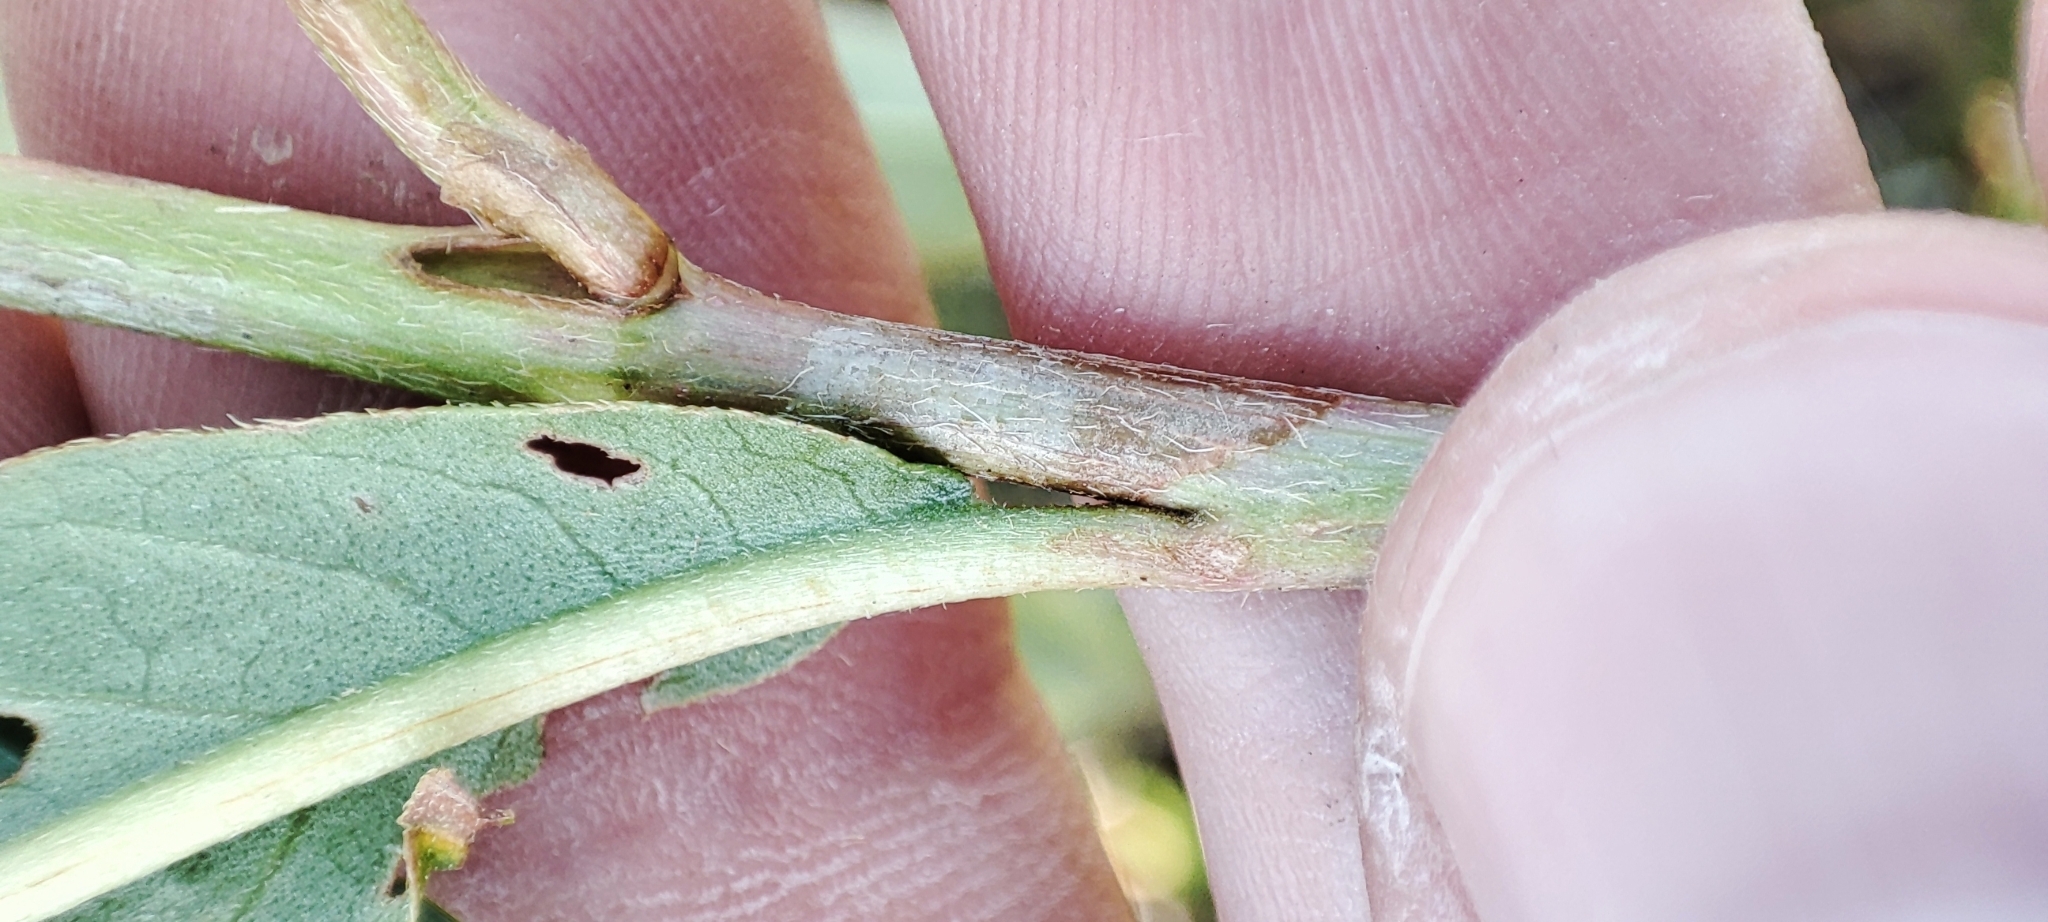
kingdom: Plantae
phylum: Tracheophyta
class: Magnoliopsida
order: Caryophyllales
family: Polygonaceae
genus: Persicaria
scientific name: Persicaria amphibia
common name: Amphibious bistort
